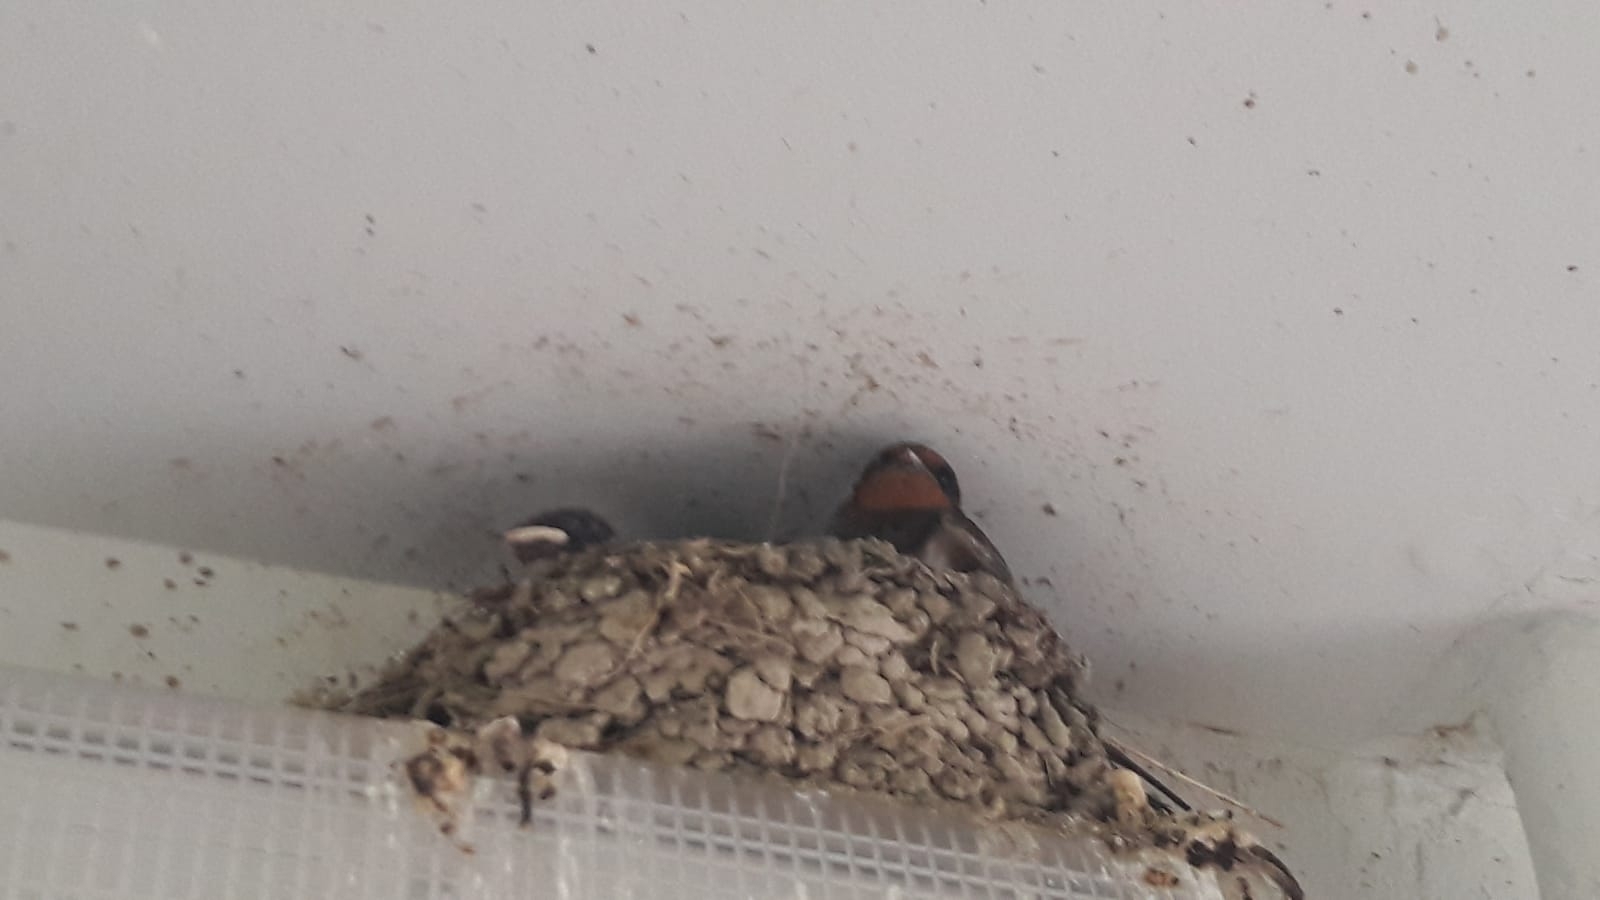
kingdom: Animalia
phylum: Chordata
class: Aves
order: Passeriformes
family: Hirundinidae
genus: Hirundo
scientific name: Hirundo rustica
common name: Barn swallow
